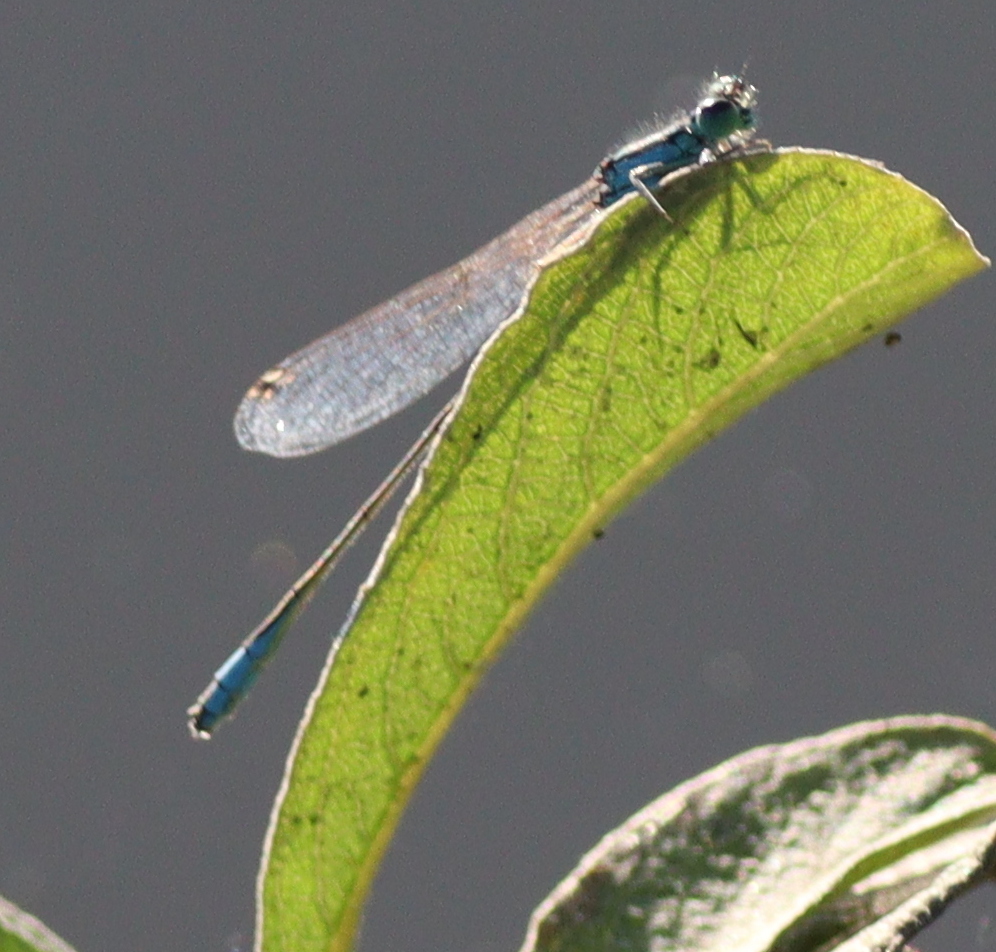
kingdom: Animalia
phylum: Arthropoda
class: Insecta
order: Odonata
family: Coenagrionidae
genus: Ischnura
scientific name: Ischnura elegans
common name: Blue-tailed damselfly
